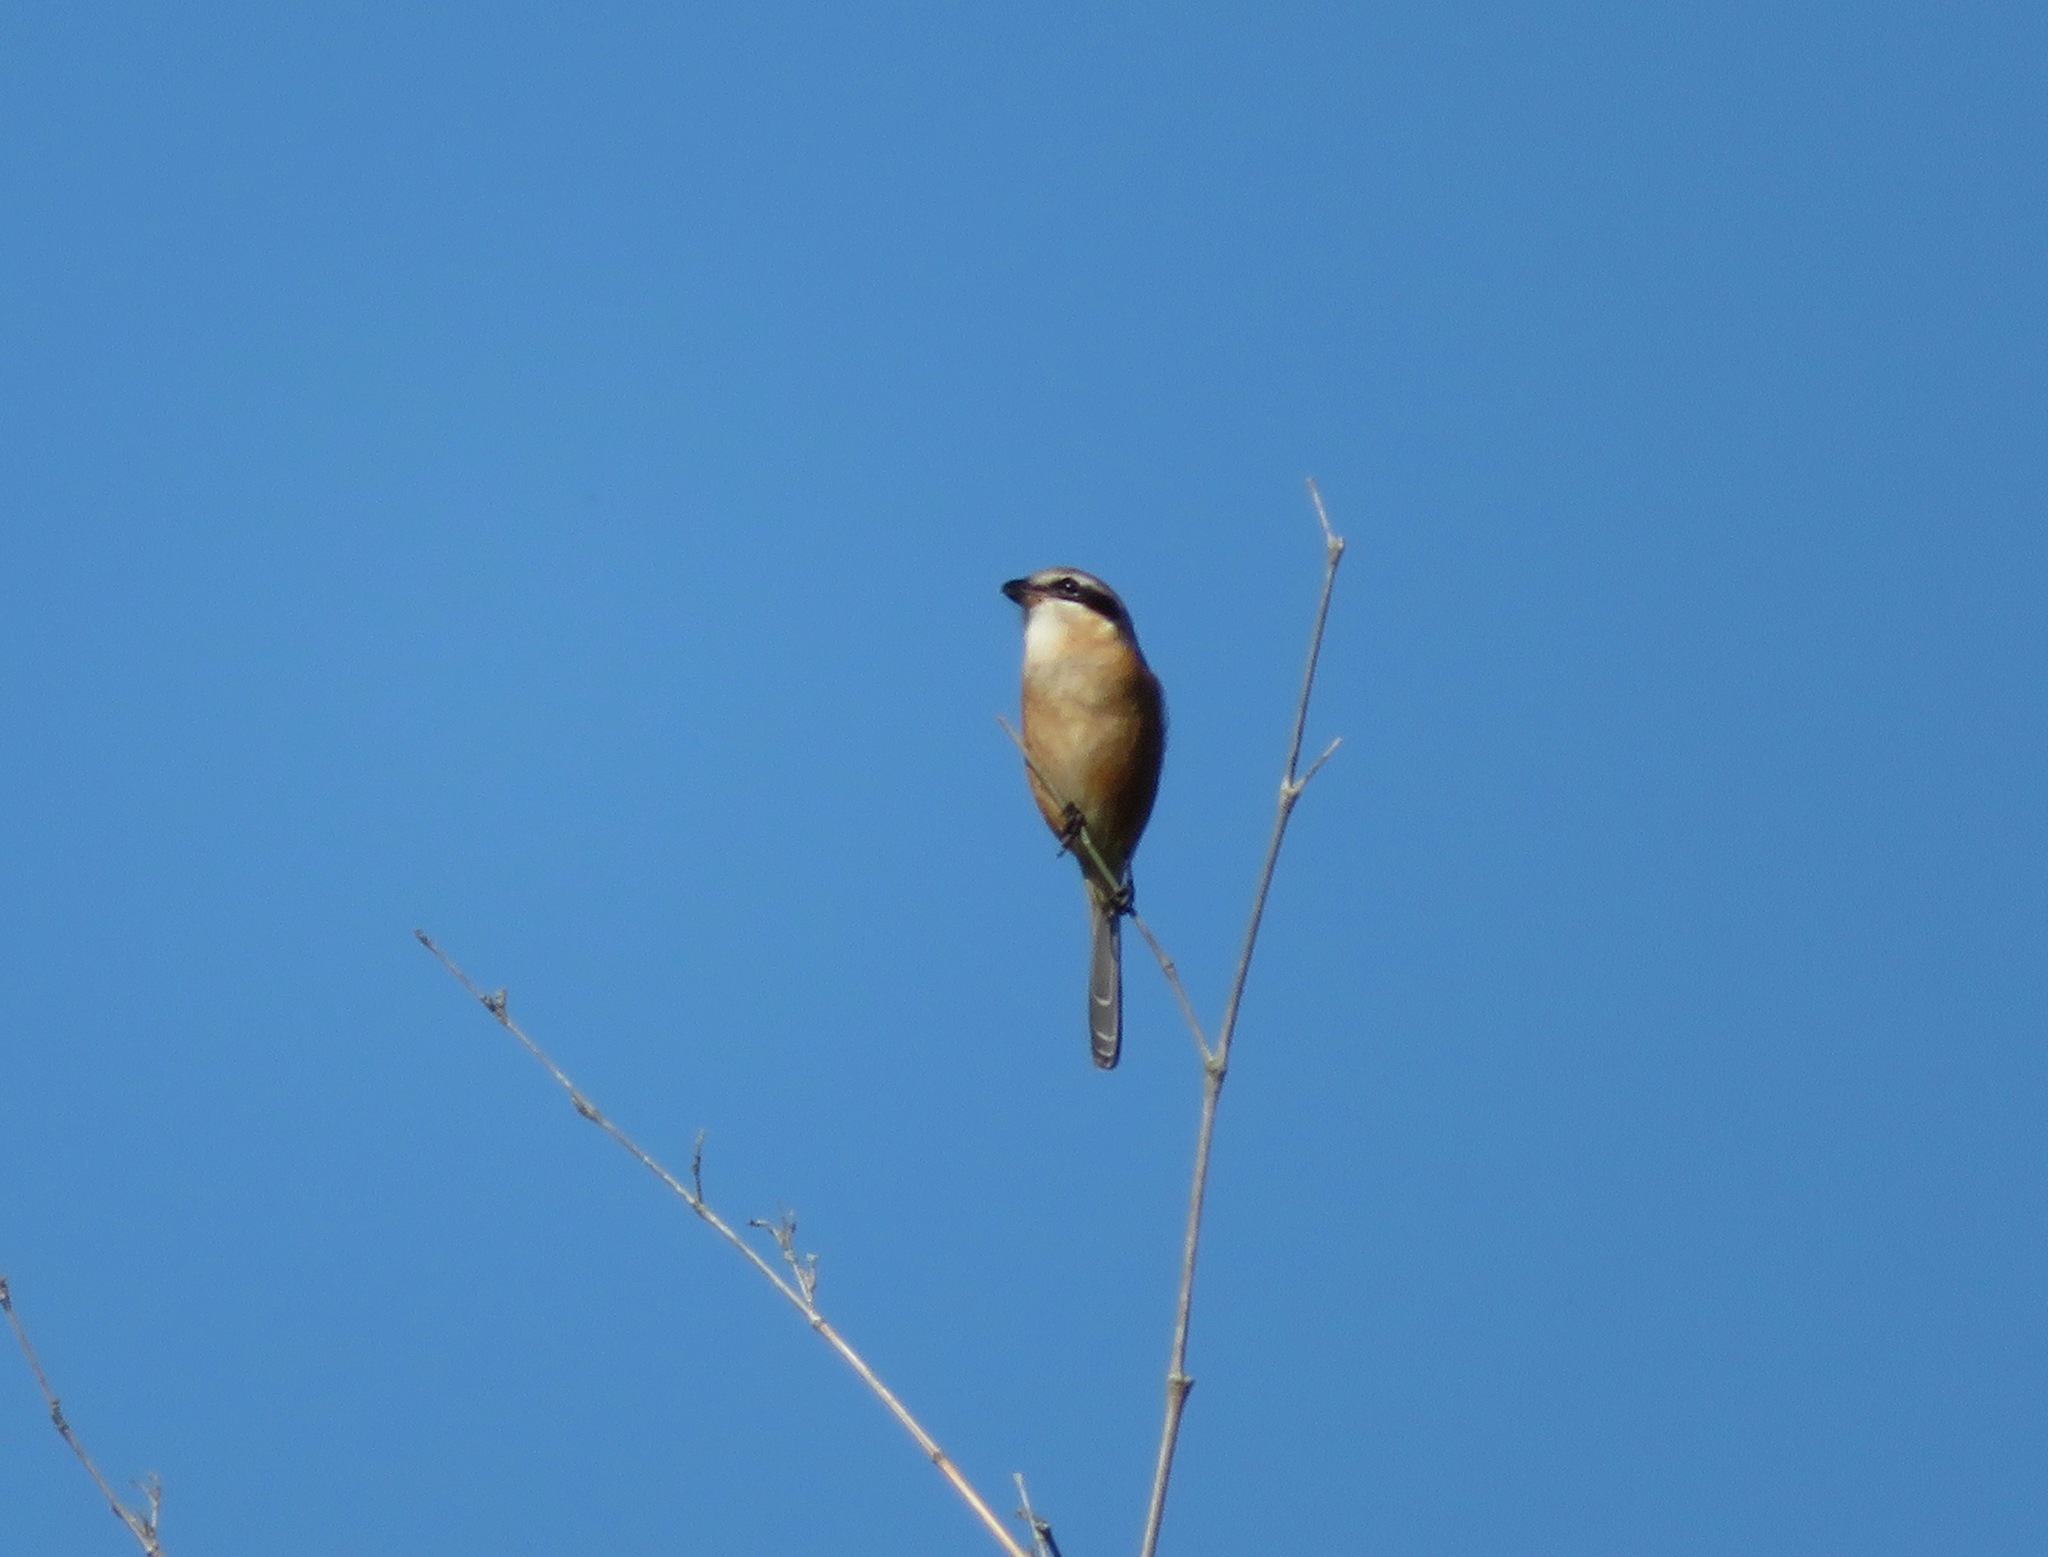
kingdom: Animalia
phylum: Chordata
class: Aves
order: Passeriformes
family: Laniidae
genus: Lanius
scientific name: Lanius bucephalus
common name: Bull-headed shrike
